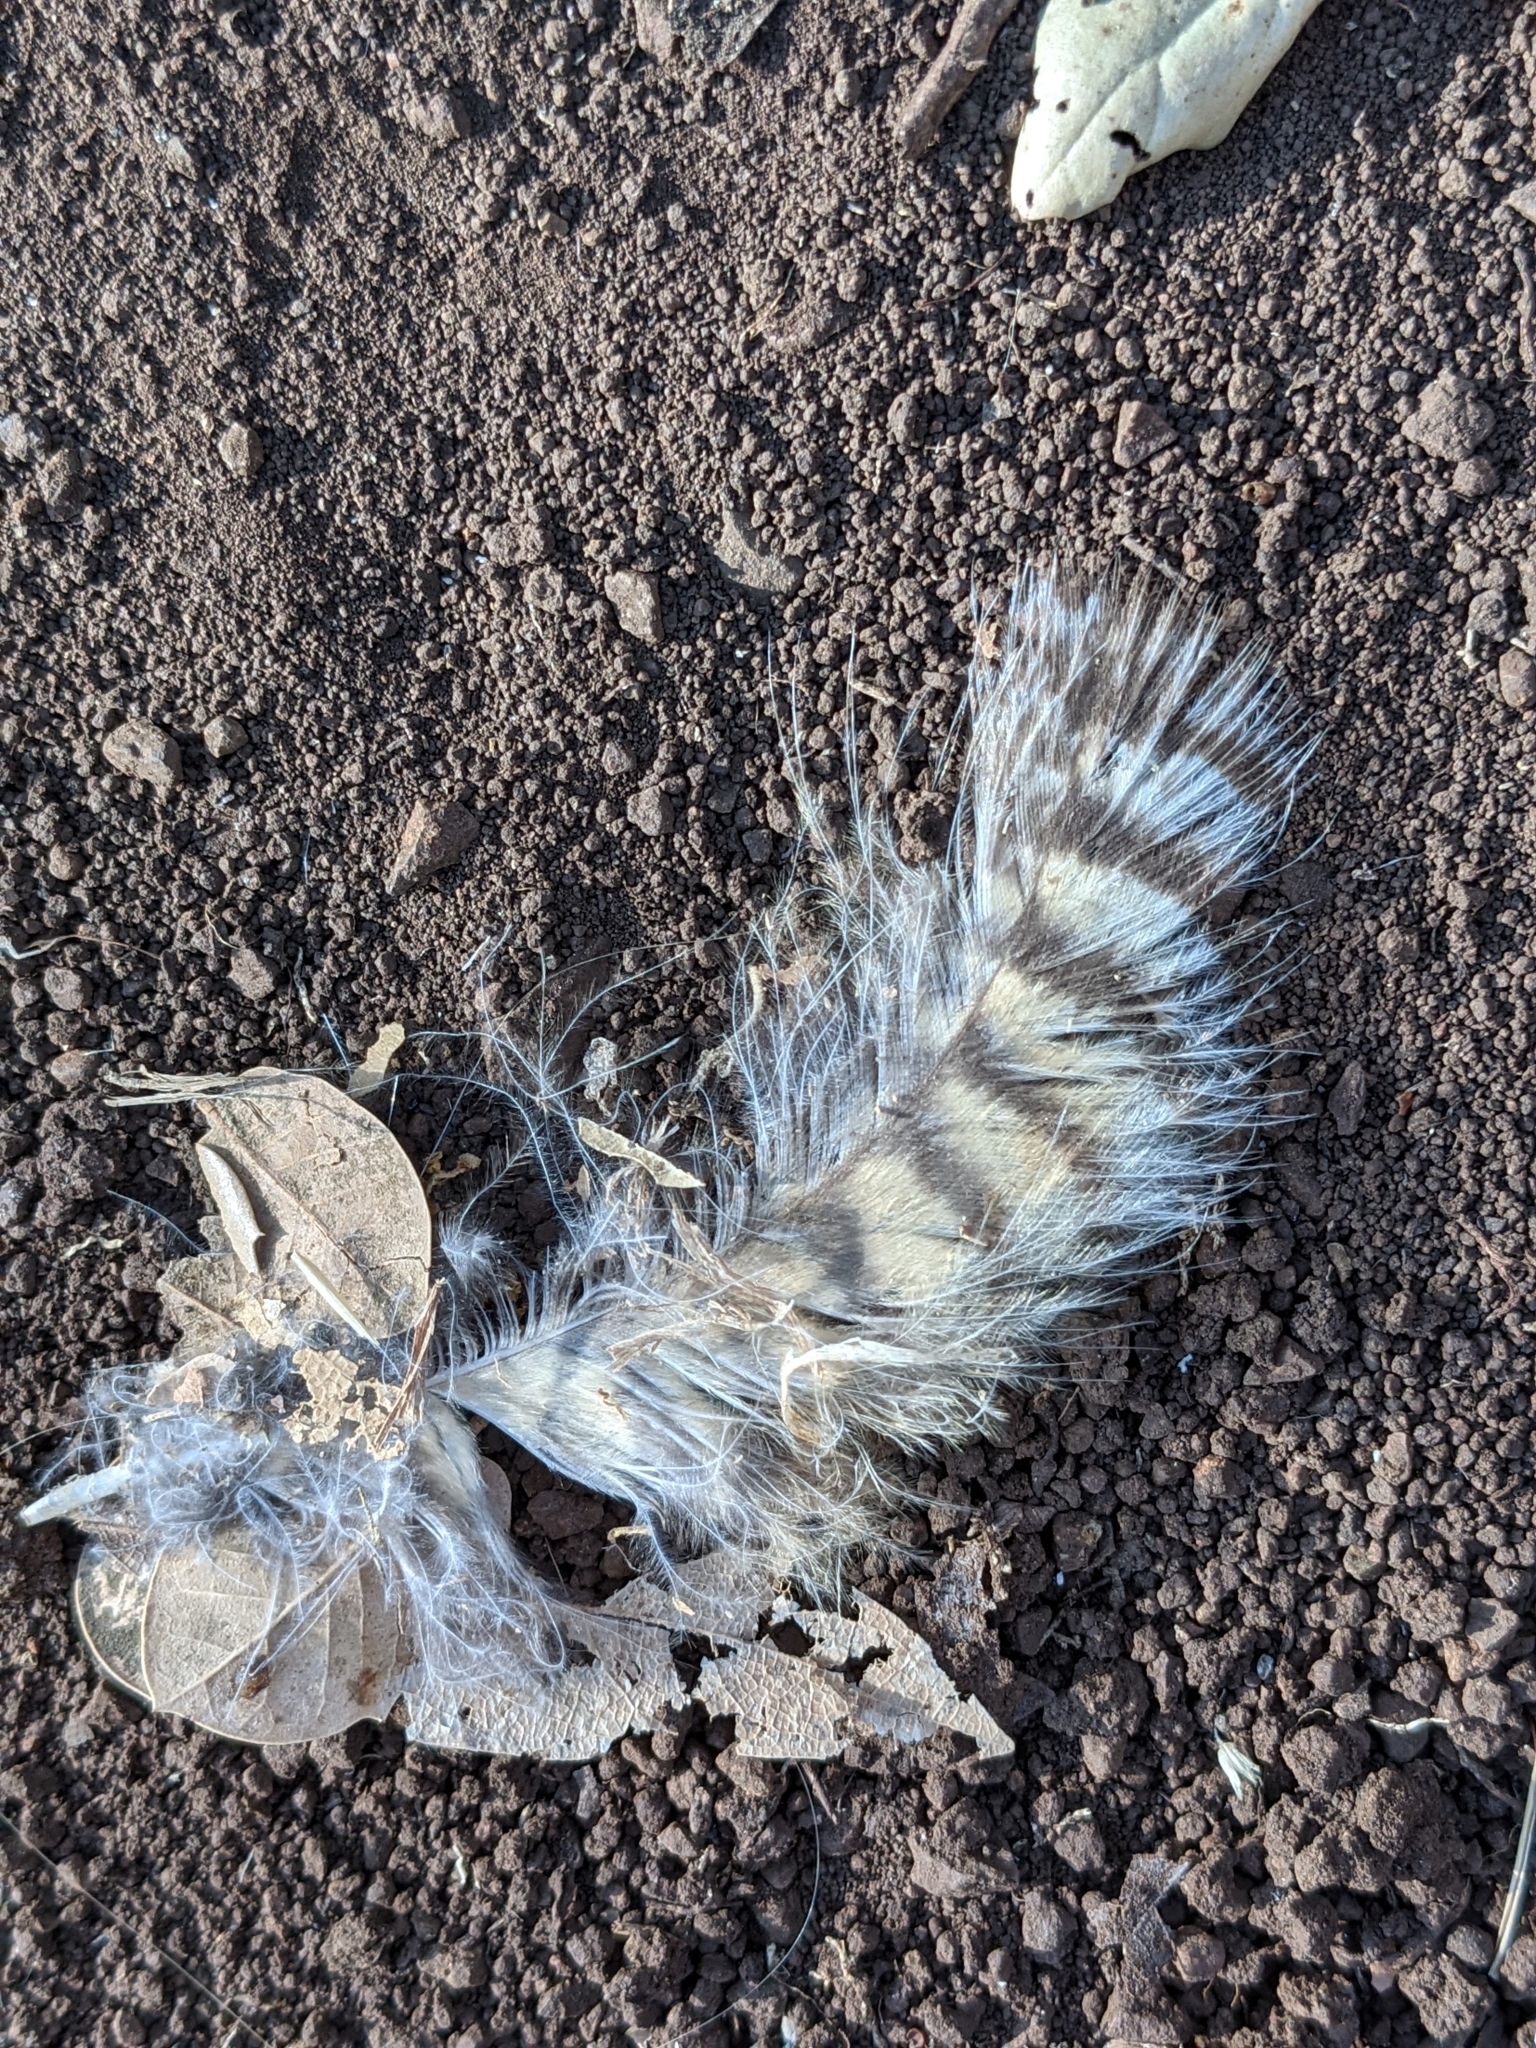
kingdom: Animalia
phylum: Chordata
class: Aves
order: Strigiformes
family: Strigidae
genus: Bubo
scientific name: Bubo virginianus
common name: Great horned owl
